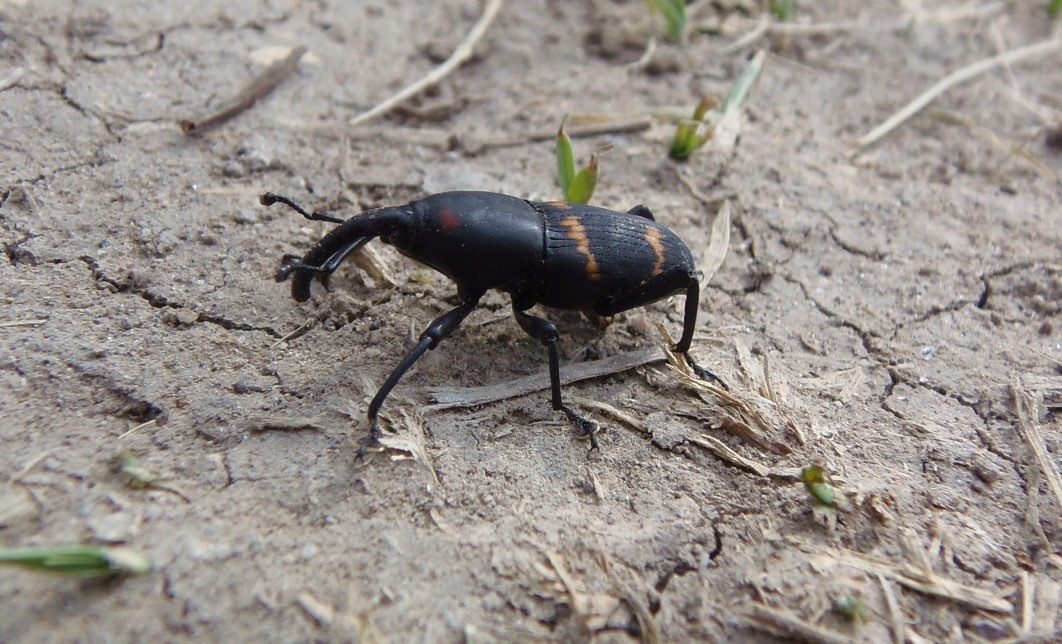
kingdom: Animalia
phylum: Arthropoda
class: Insecta
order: Coleoptera
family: Dryophthoridae
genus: Cactophagus
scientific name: Cactophagus spinolae
